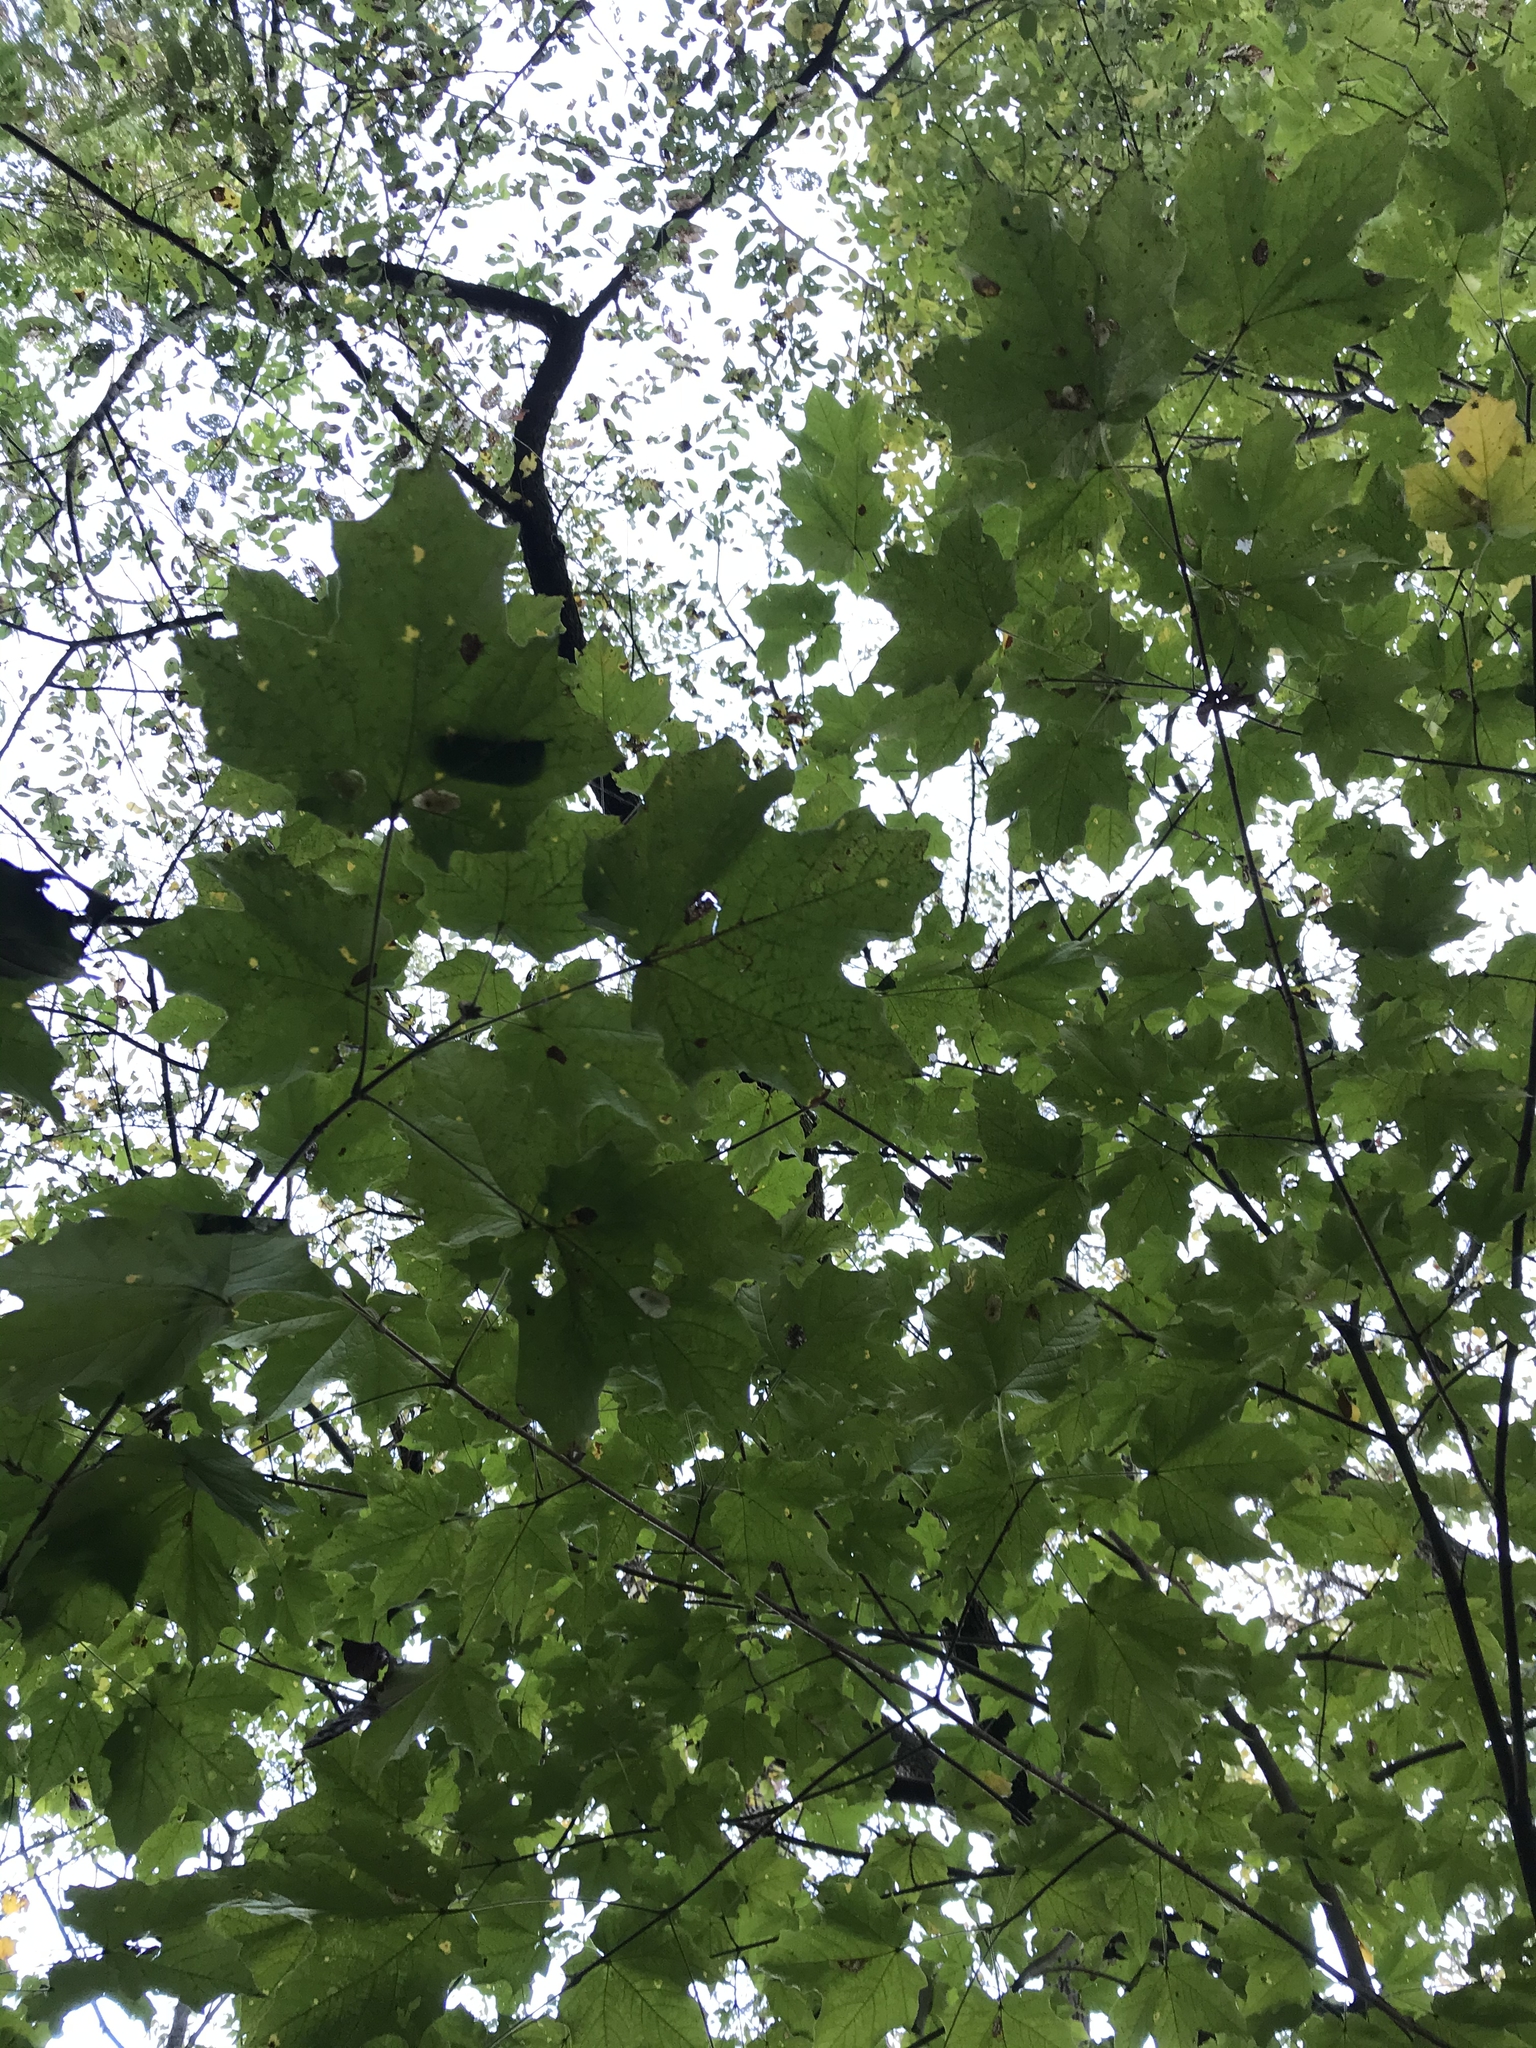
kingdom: Plantae
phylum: Tracheophyta
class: Magnoliopsida
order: Sapindales
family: Sapindaceae
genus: Acer
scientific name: Acer nigrum
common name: Black maple
